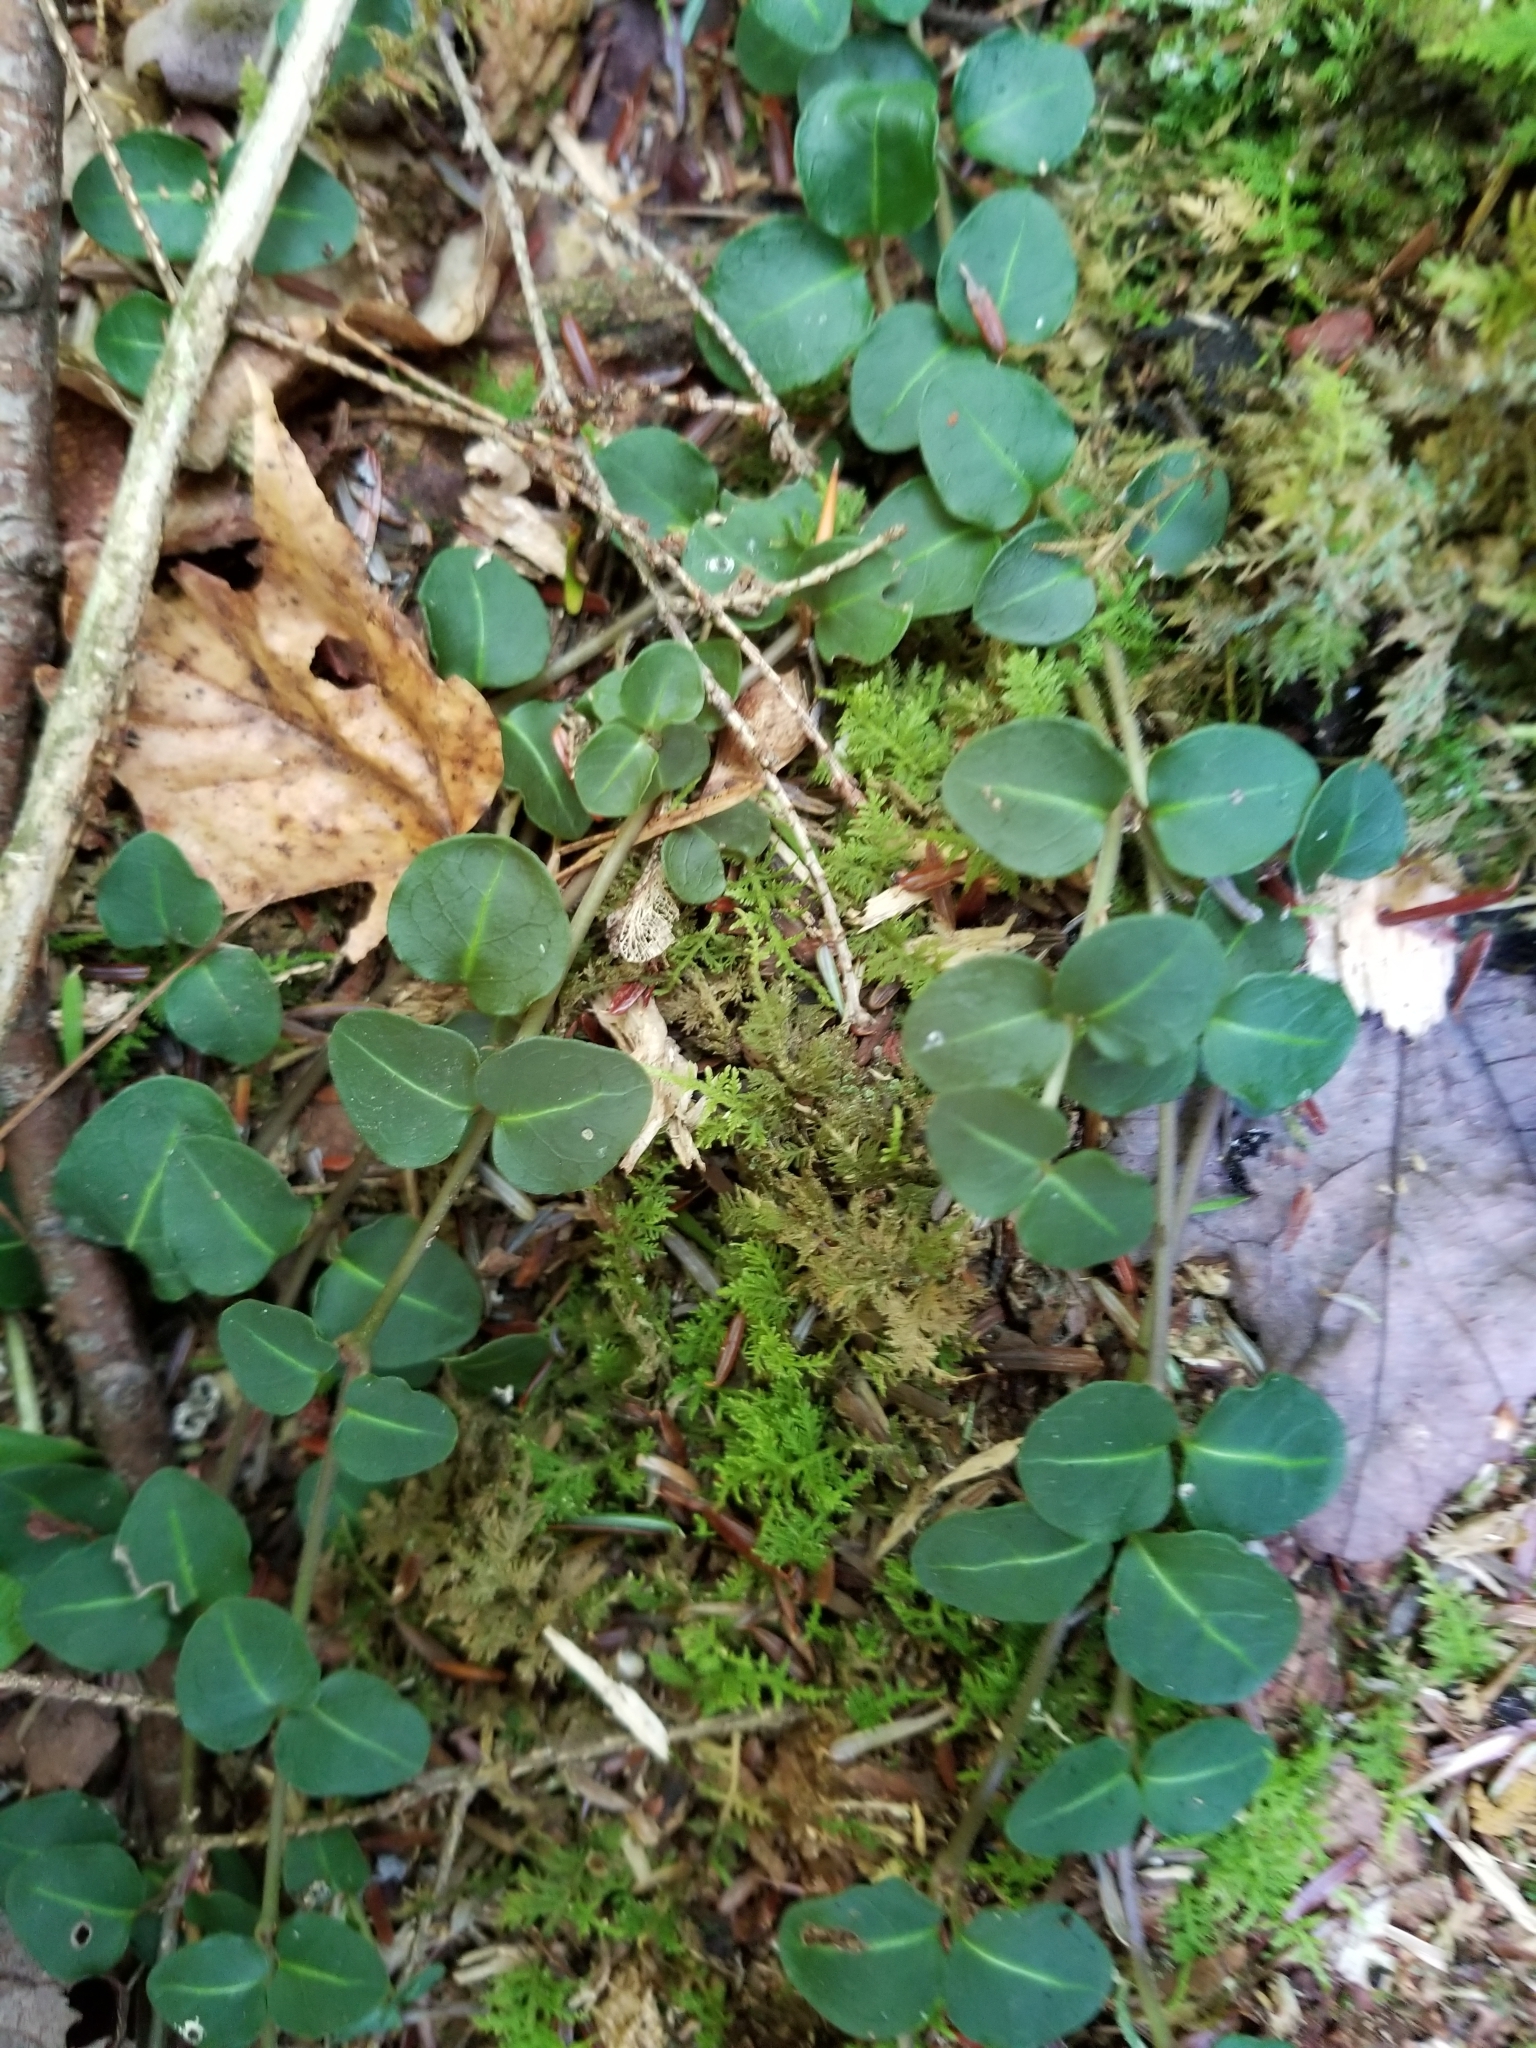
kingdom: Plantae
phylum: Tracheophyta
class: Magnoliopsida
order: Gentianales
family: Rubiaceae
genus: Mitchella
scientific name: Mitchella repens
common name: Partridge-berry
